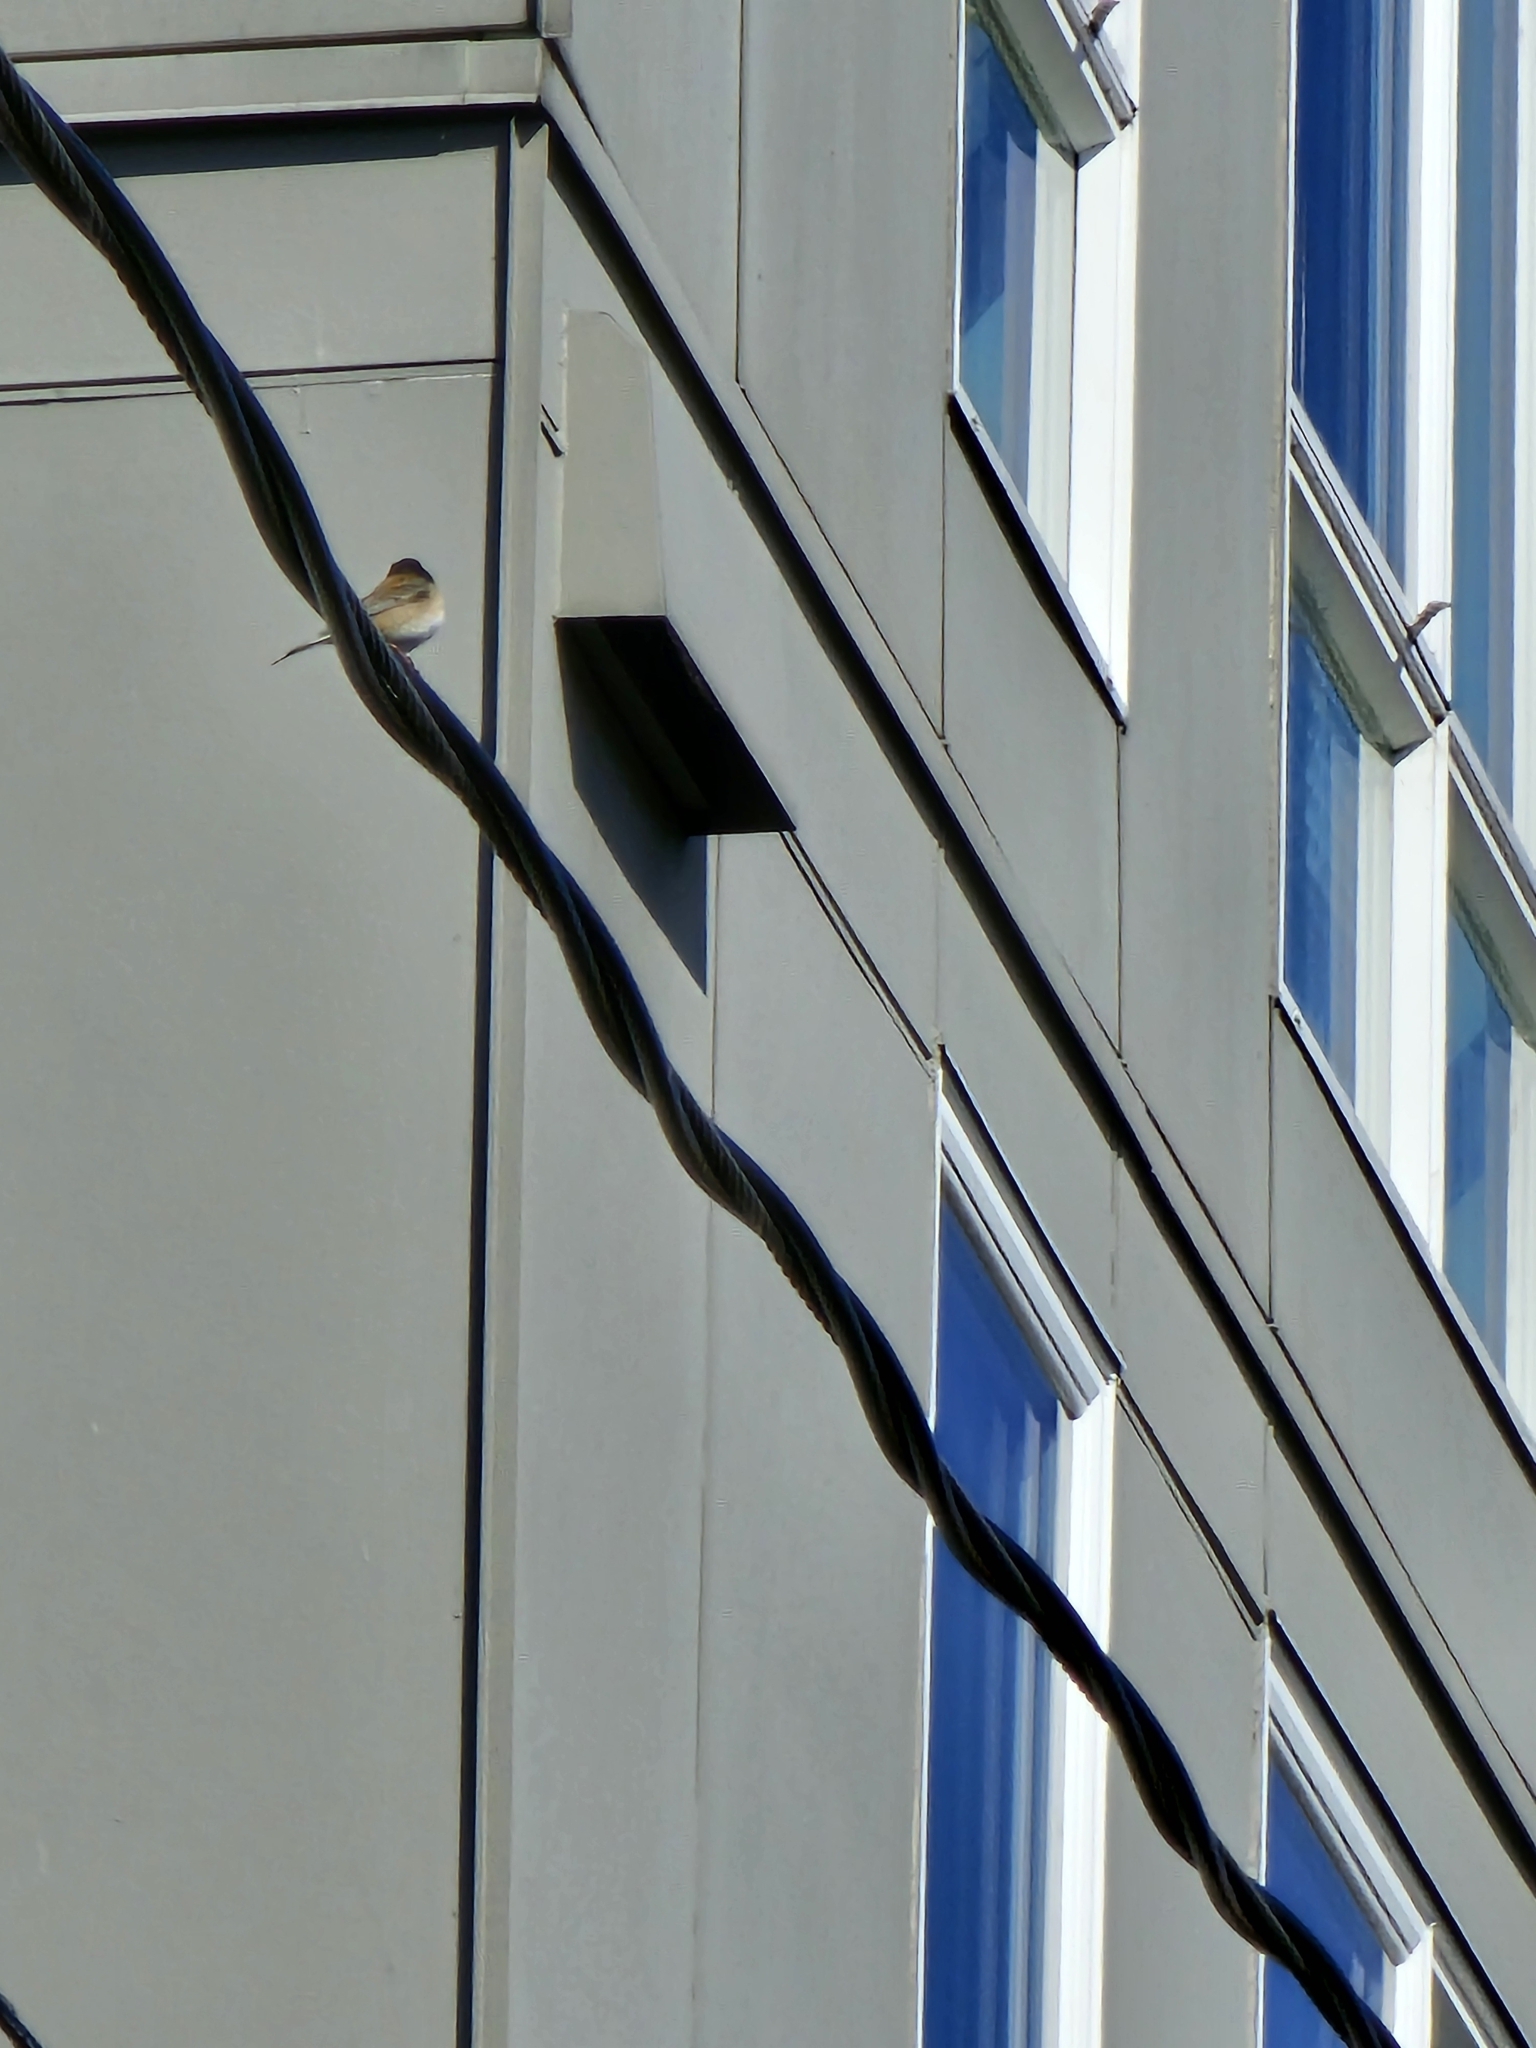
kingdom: Animalia
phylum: Chordata
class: Aves
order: Passeriformes
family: Passerellidae
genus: Junco
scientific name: Junco hyemalis
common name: Dark-eyed junco
